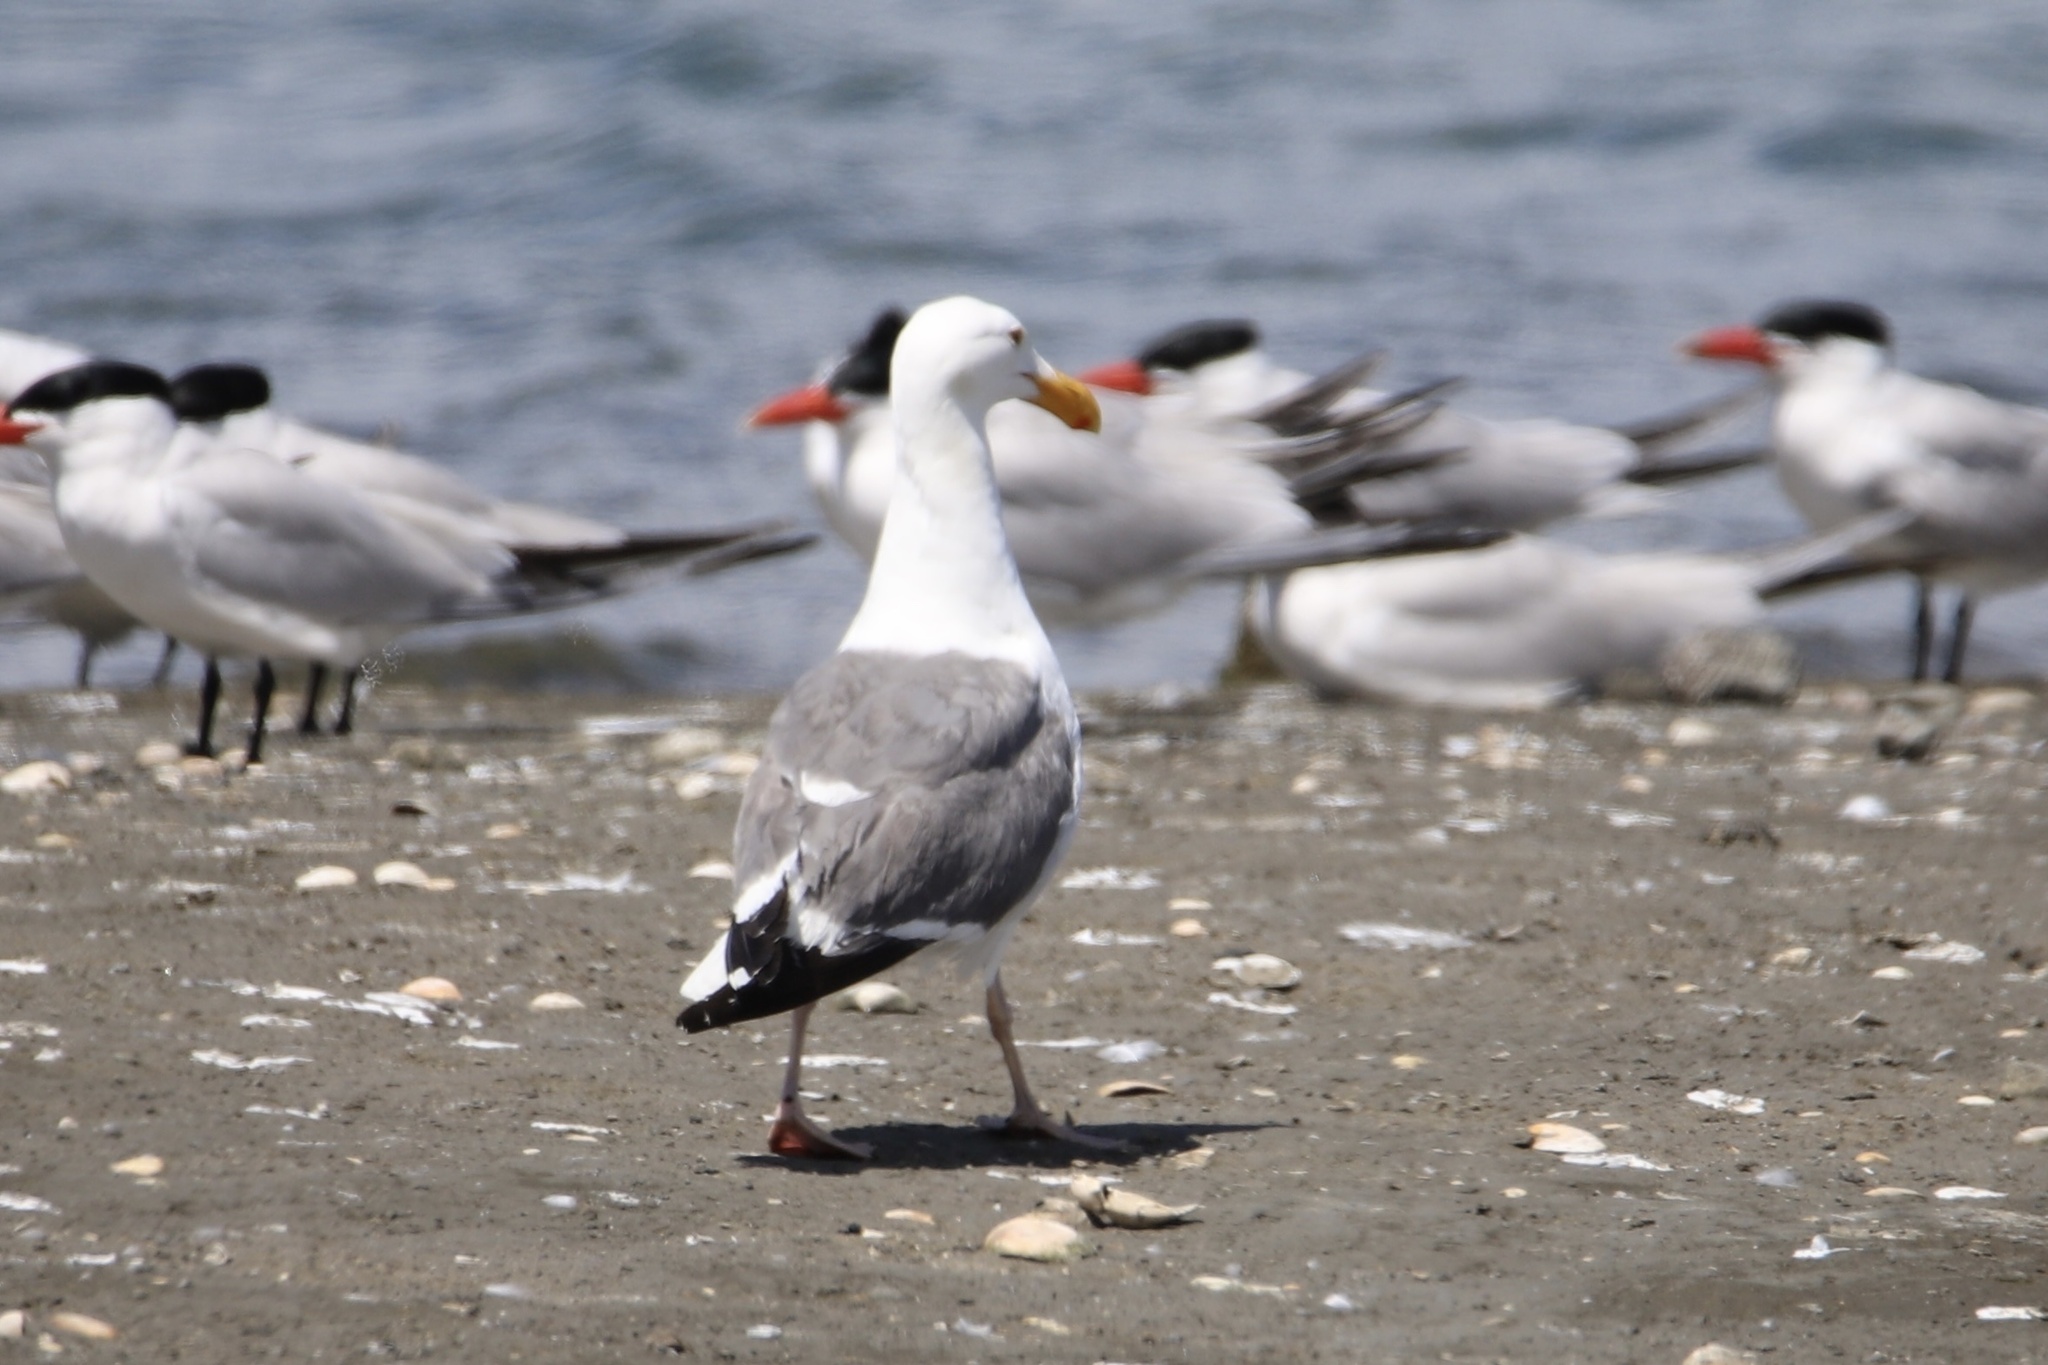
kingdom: Animalia
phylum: Chordata
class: Aves
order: Charadriiformes
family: Laridae
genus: Larus
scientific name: Larus occidentalis
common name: Western gull
